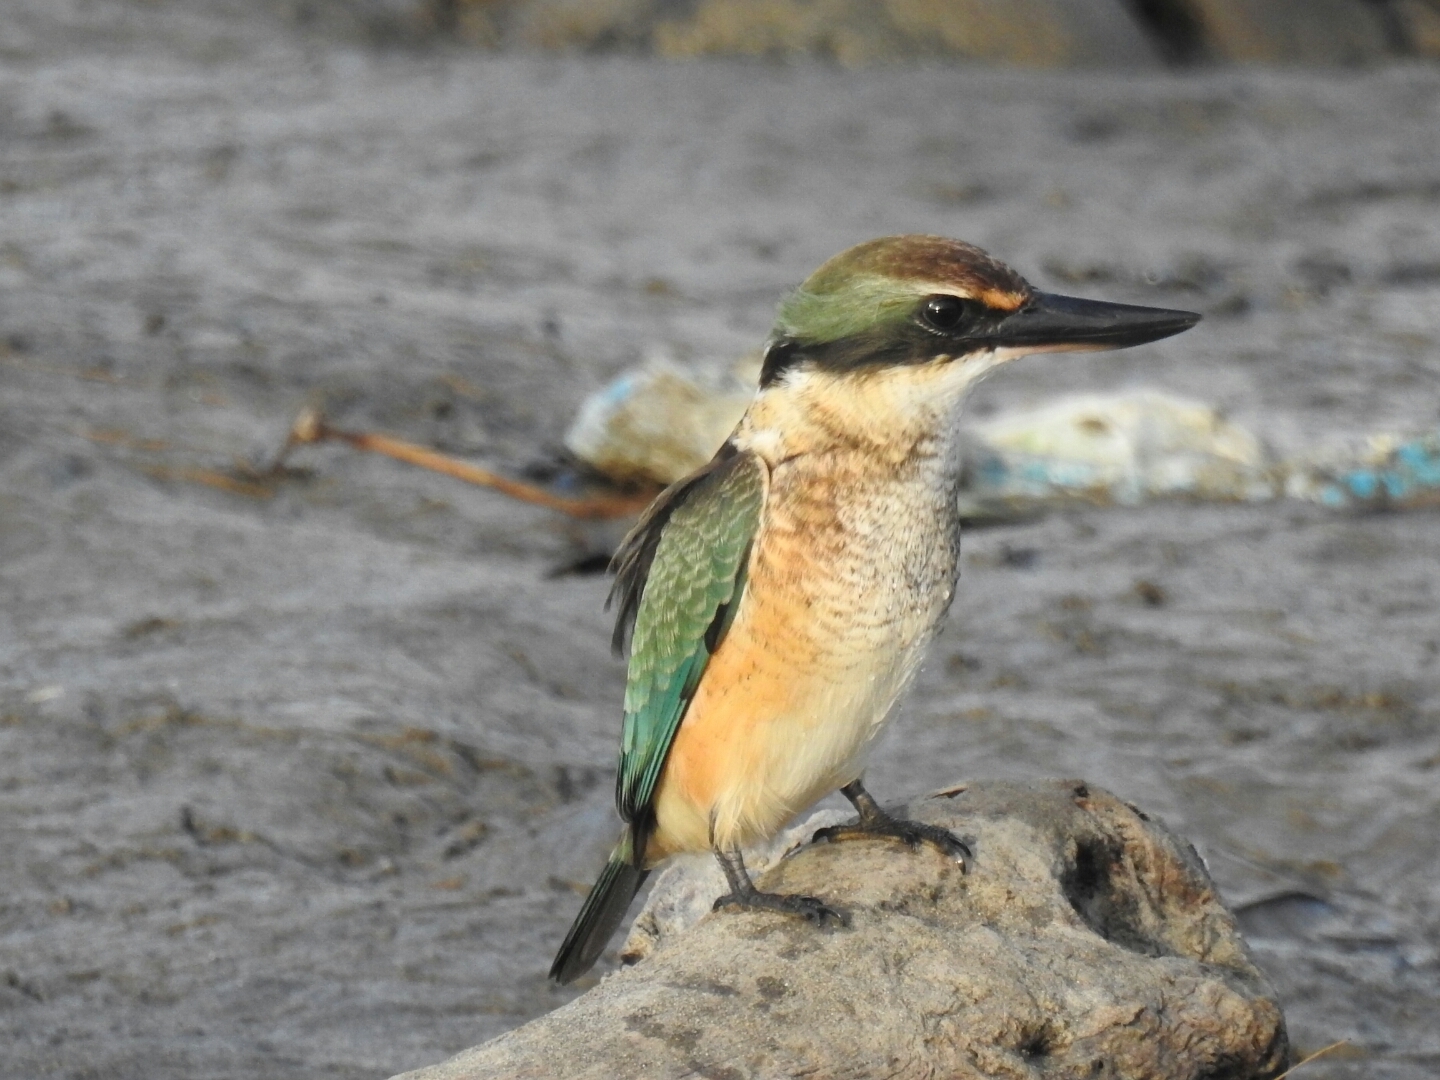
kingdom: Animalia
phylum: Chordata
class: Aves
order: Coraciiformes
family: Alcedinidae
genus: Todiramphus
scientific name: Todiramphus sanctus
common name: Sacred kingfisher
